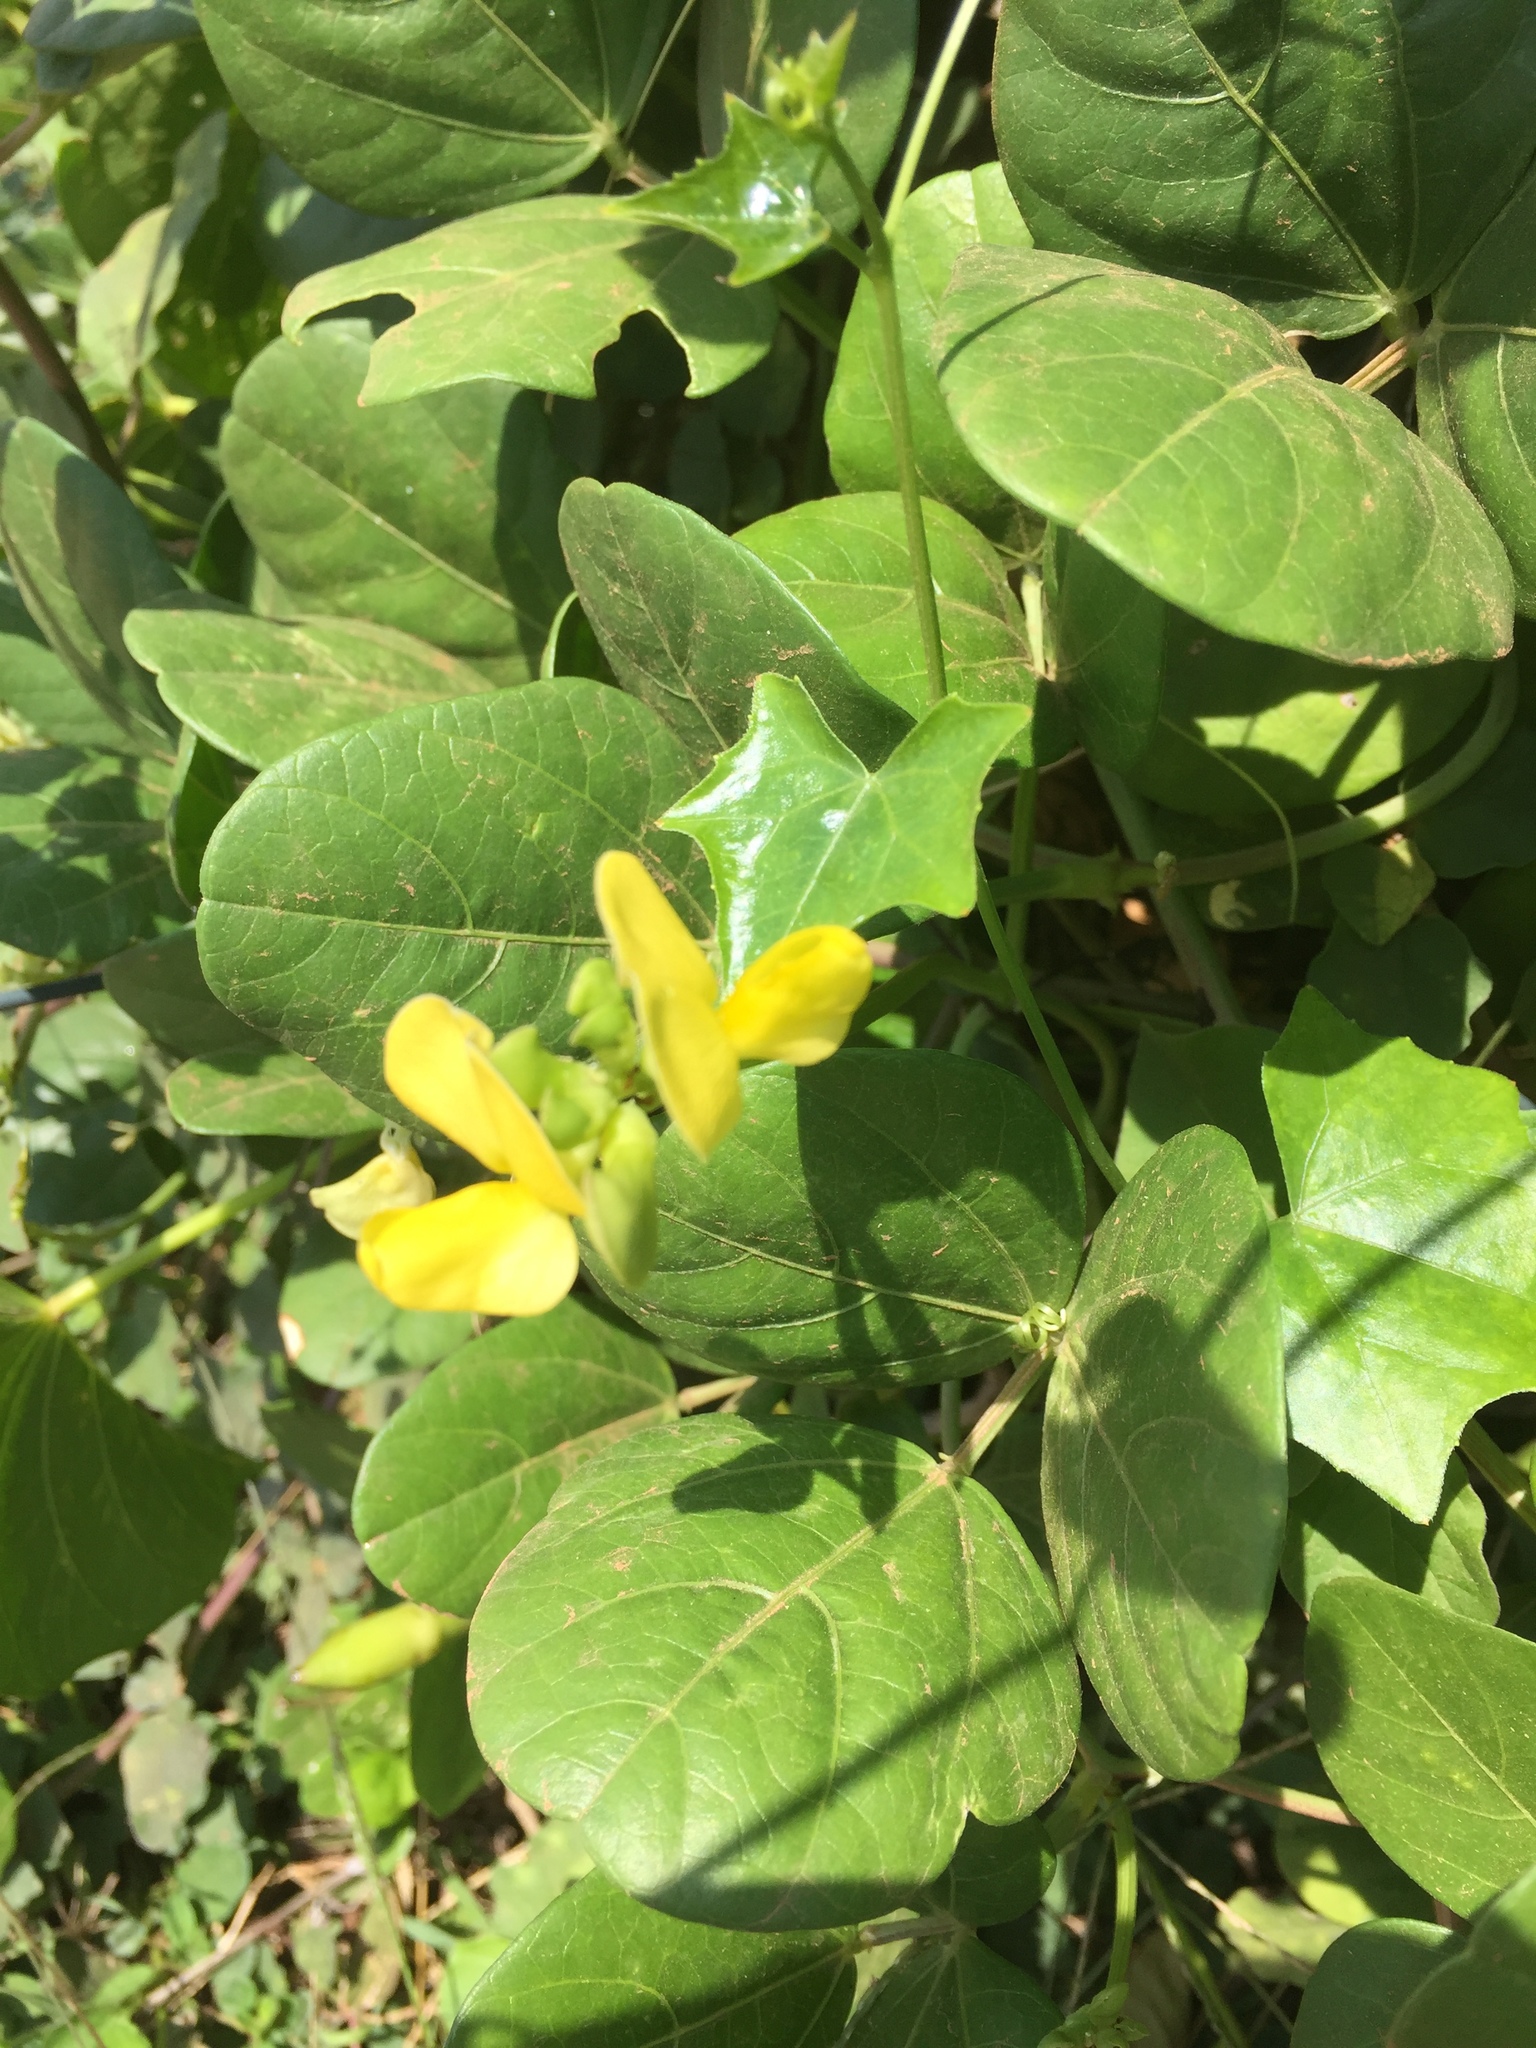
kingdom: Plantae
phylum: Tracheophyta
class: Magnoliopsida
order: Fabales
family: Fabaceae
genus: Vigna
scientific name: Vigna luteola
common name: Hairypod cowpea
